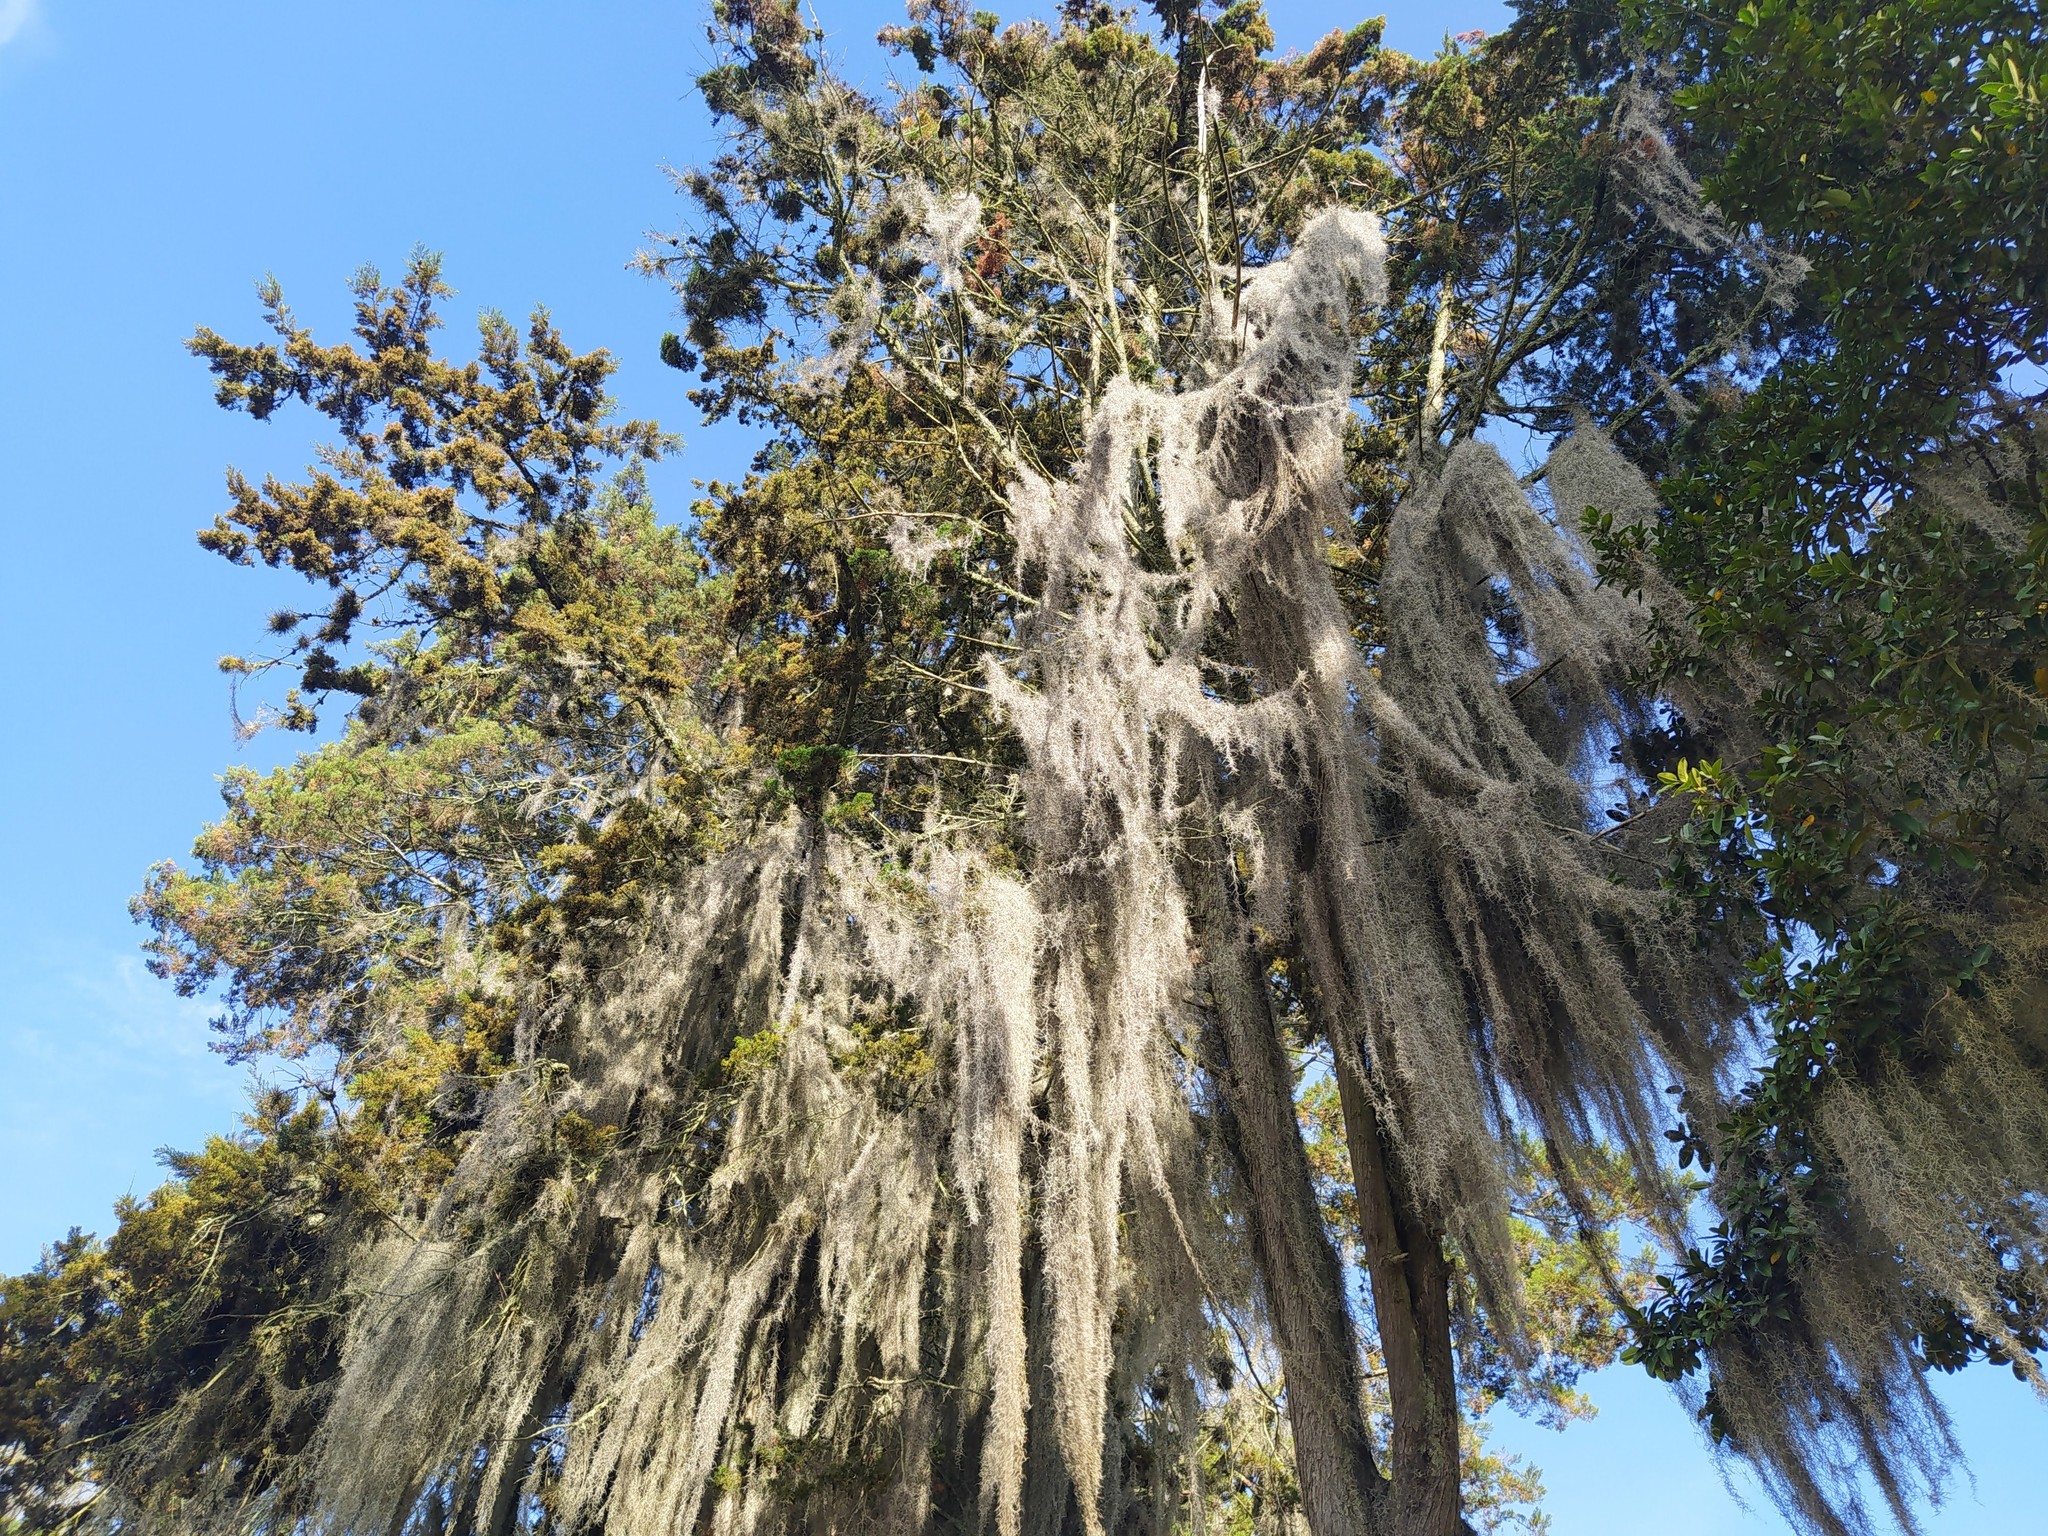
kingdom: Plantae
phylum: Tracheophyta
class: Liliopsida
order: Poales
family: Bromeliaceae
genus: Tillandsia
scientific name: Tillandsia usneoides
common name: Spanish moss
